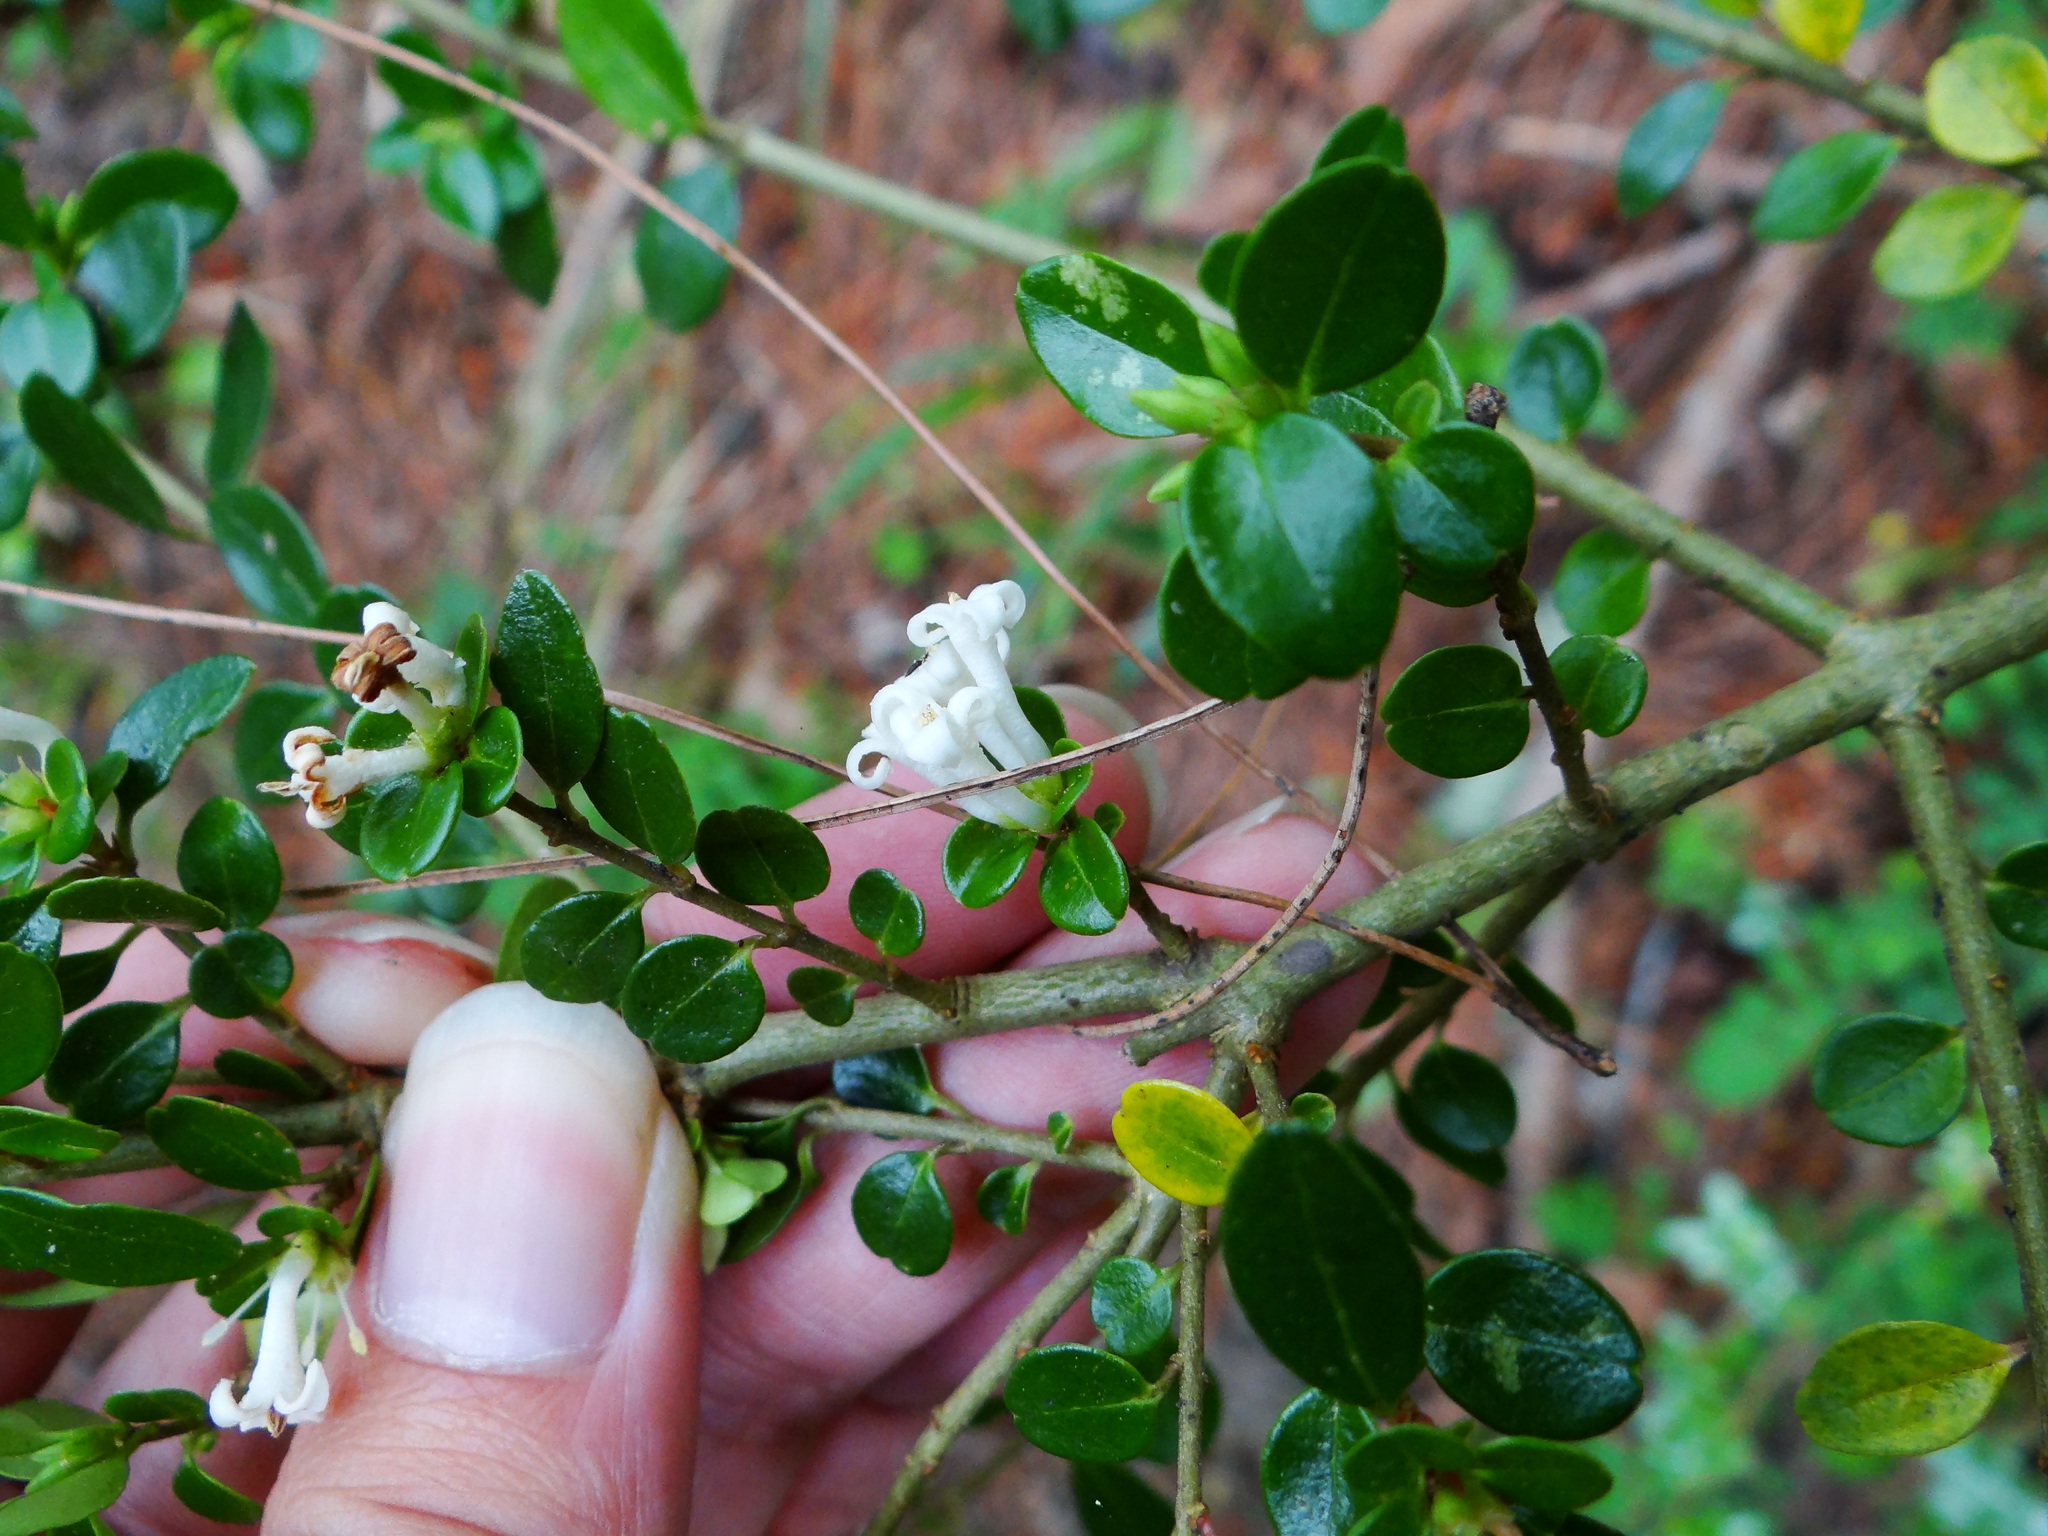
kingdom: Plantae
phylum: Tracheophyta
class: Magnoliopsida
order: Lamiales
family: Oleaceae
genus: Ligustrum
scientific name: Ligustrum morrisonense
